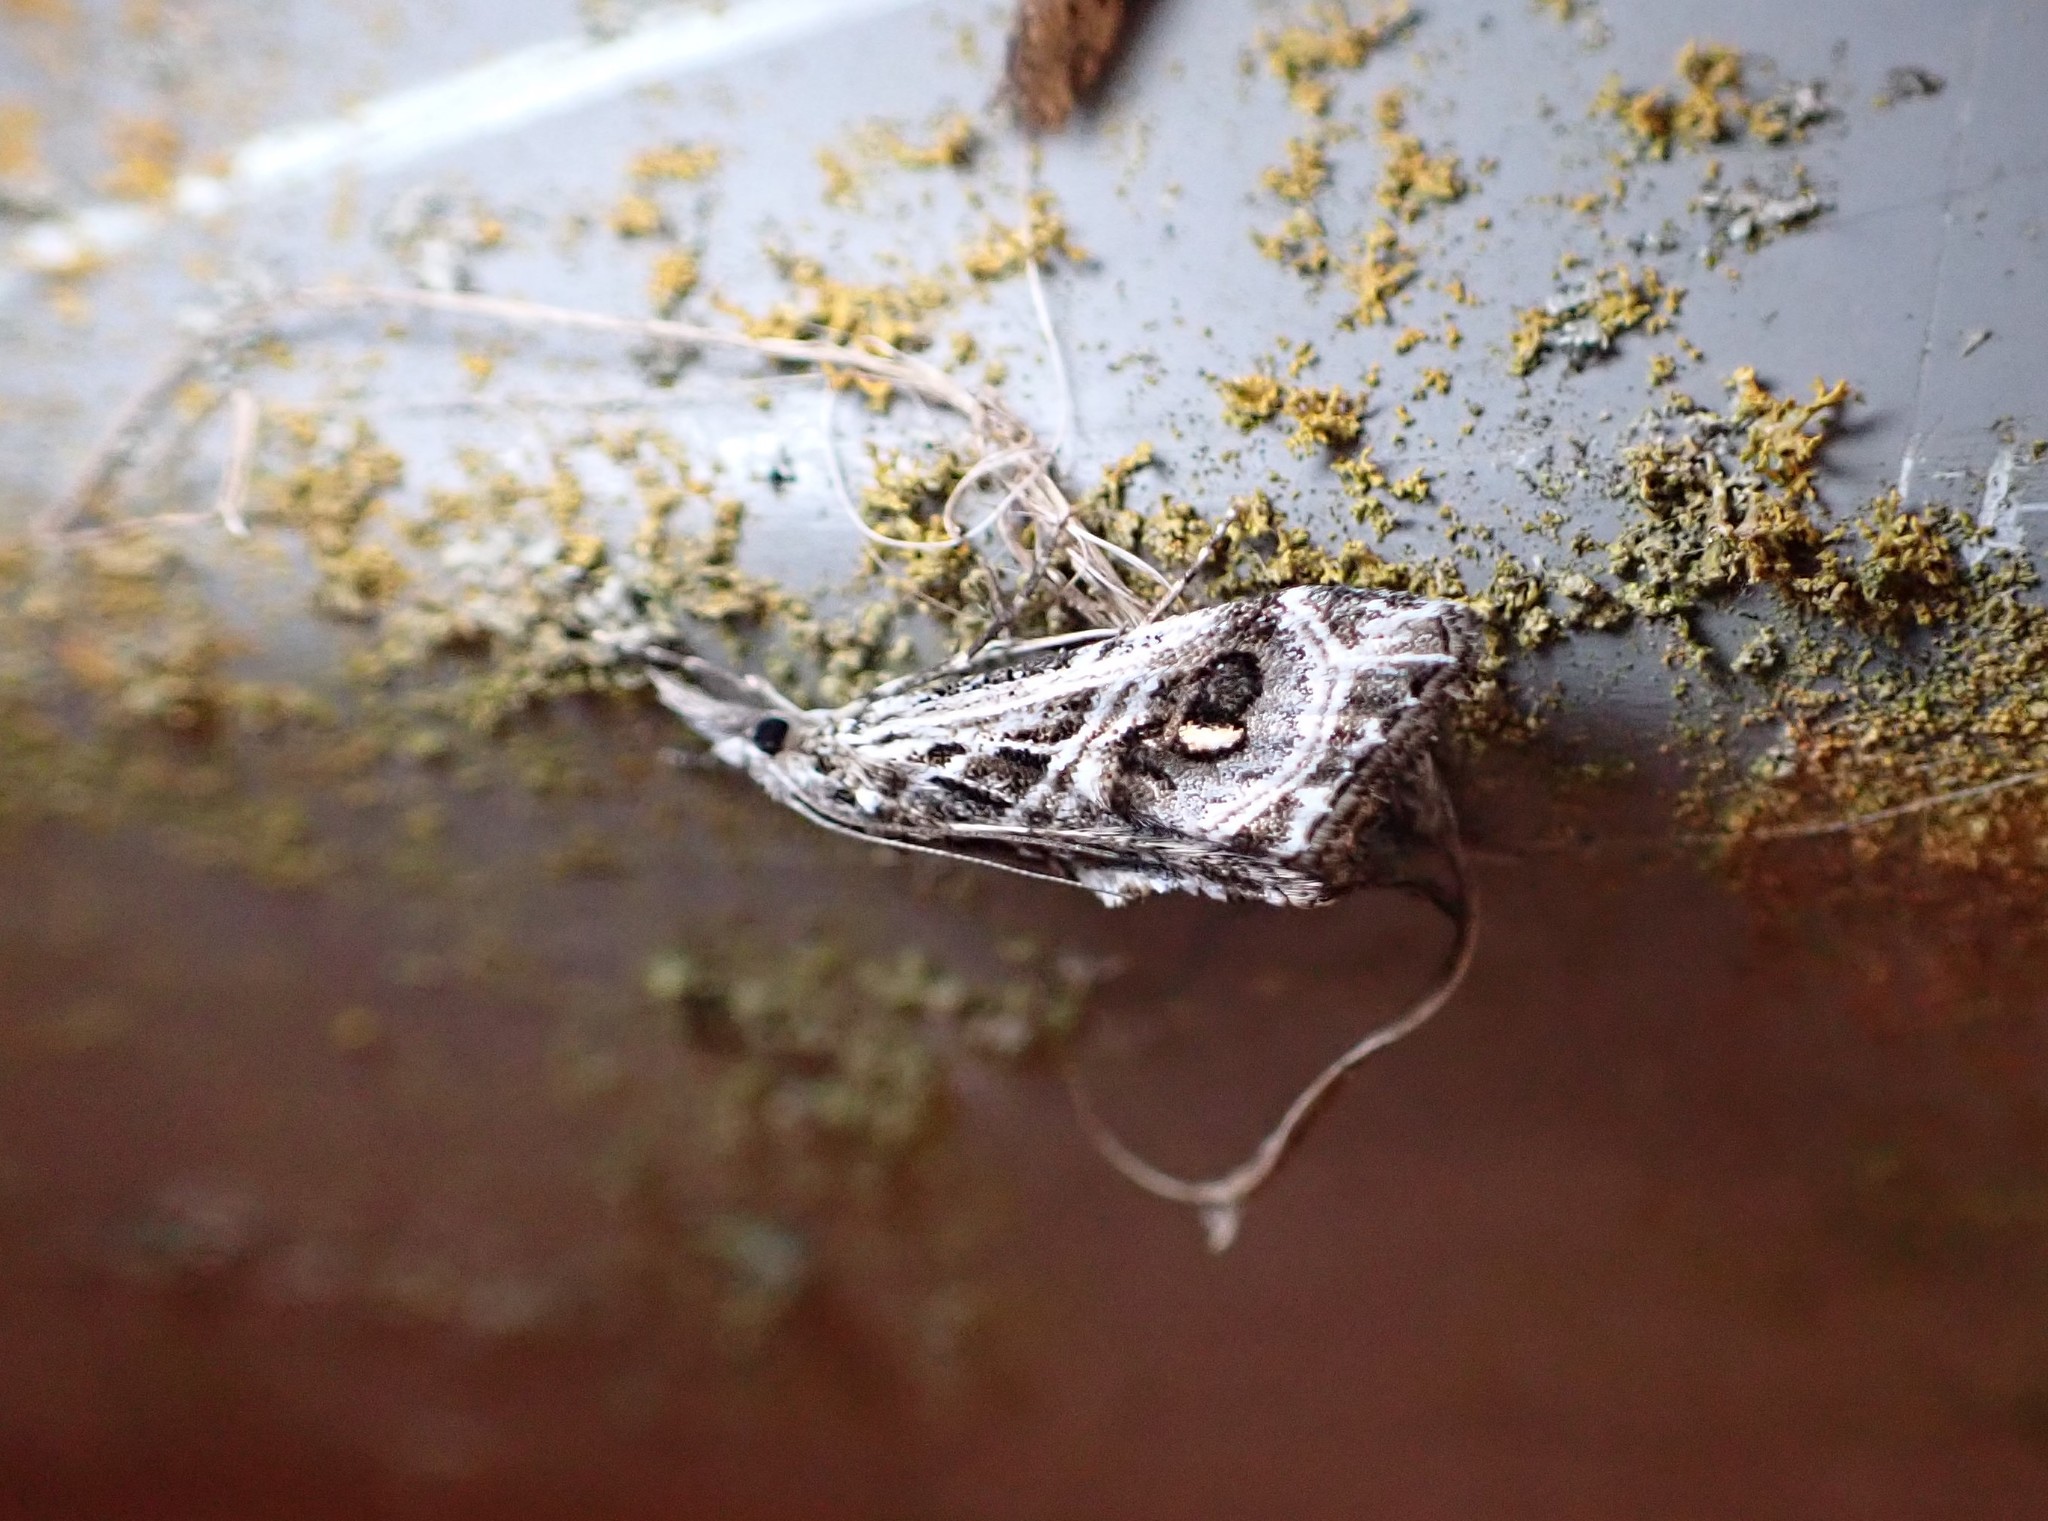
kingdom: Animalia
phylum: Arthropoda
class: Insecta
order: Lepidoptera
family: Crambidae
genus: Gadira
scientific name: Gadira acerella
